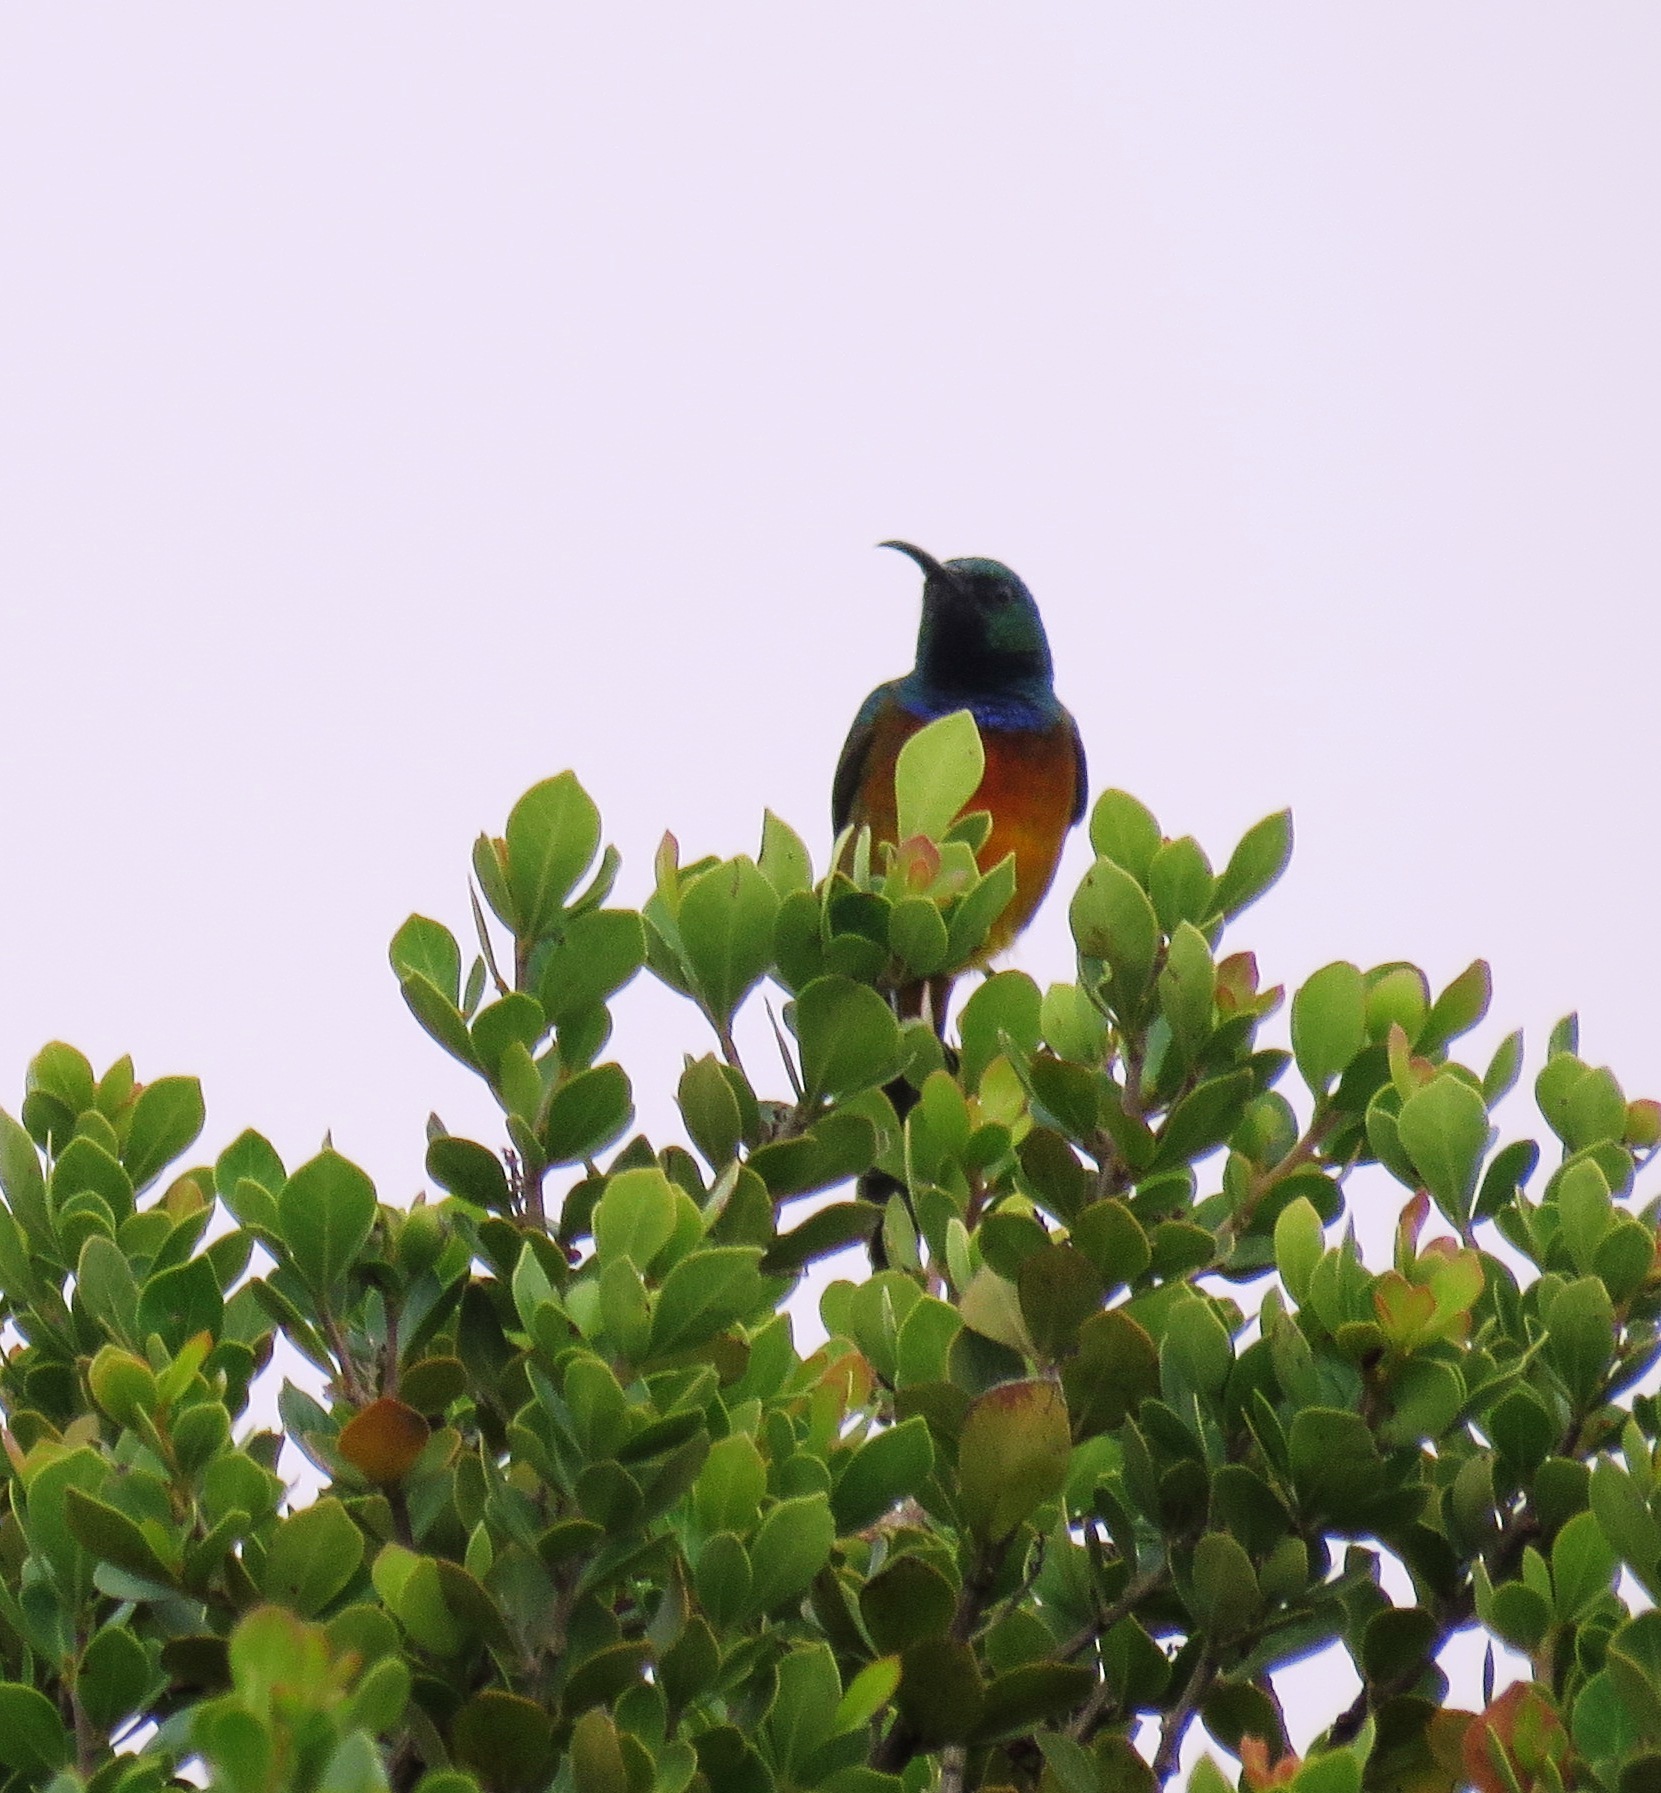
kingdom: Animalia
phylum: Chordata
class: Aves
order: Passeriformes
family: Nectariniidae
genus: Anthobaphes
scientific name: Anthobaphes violacea
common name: Orange-breasted sunbird
